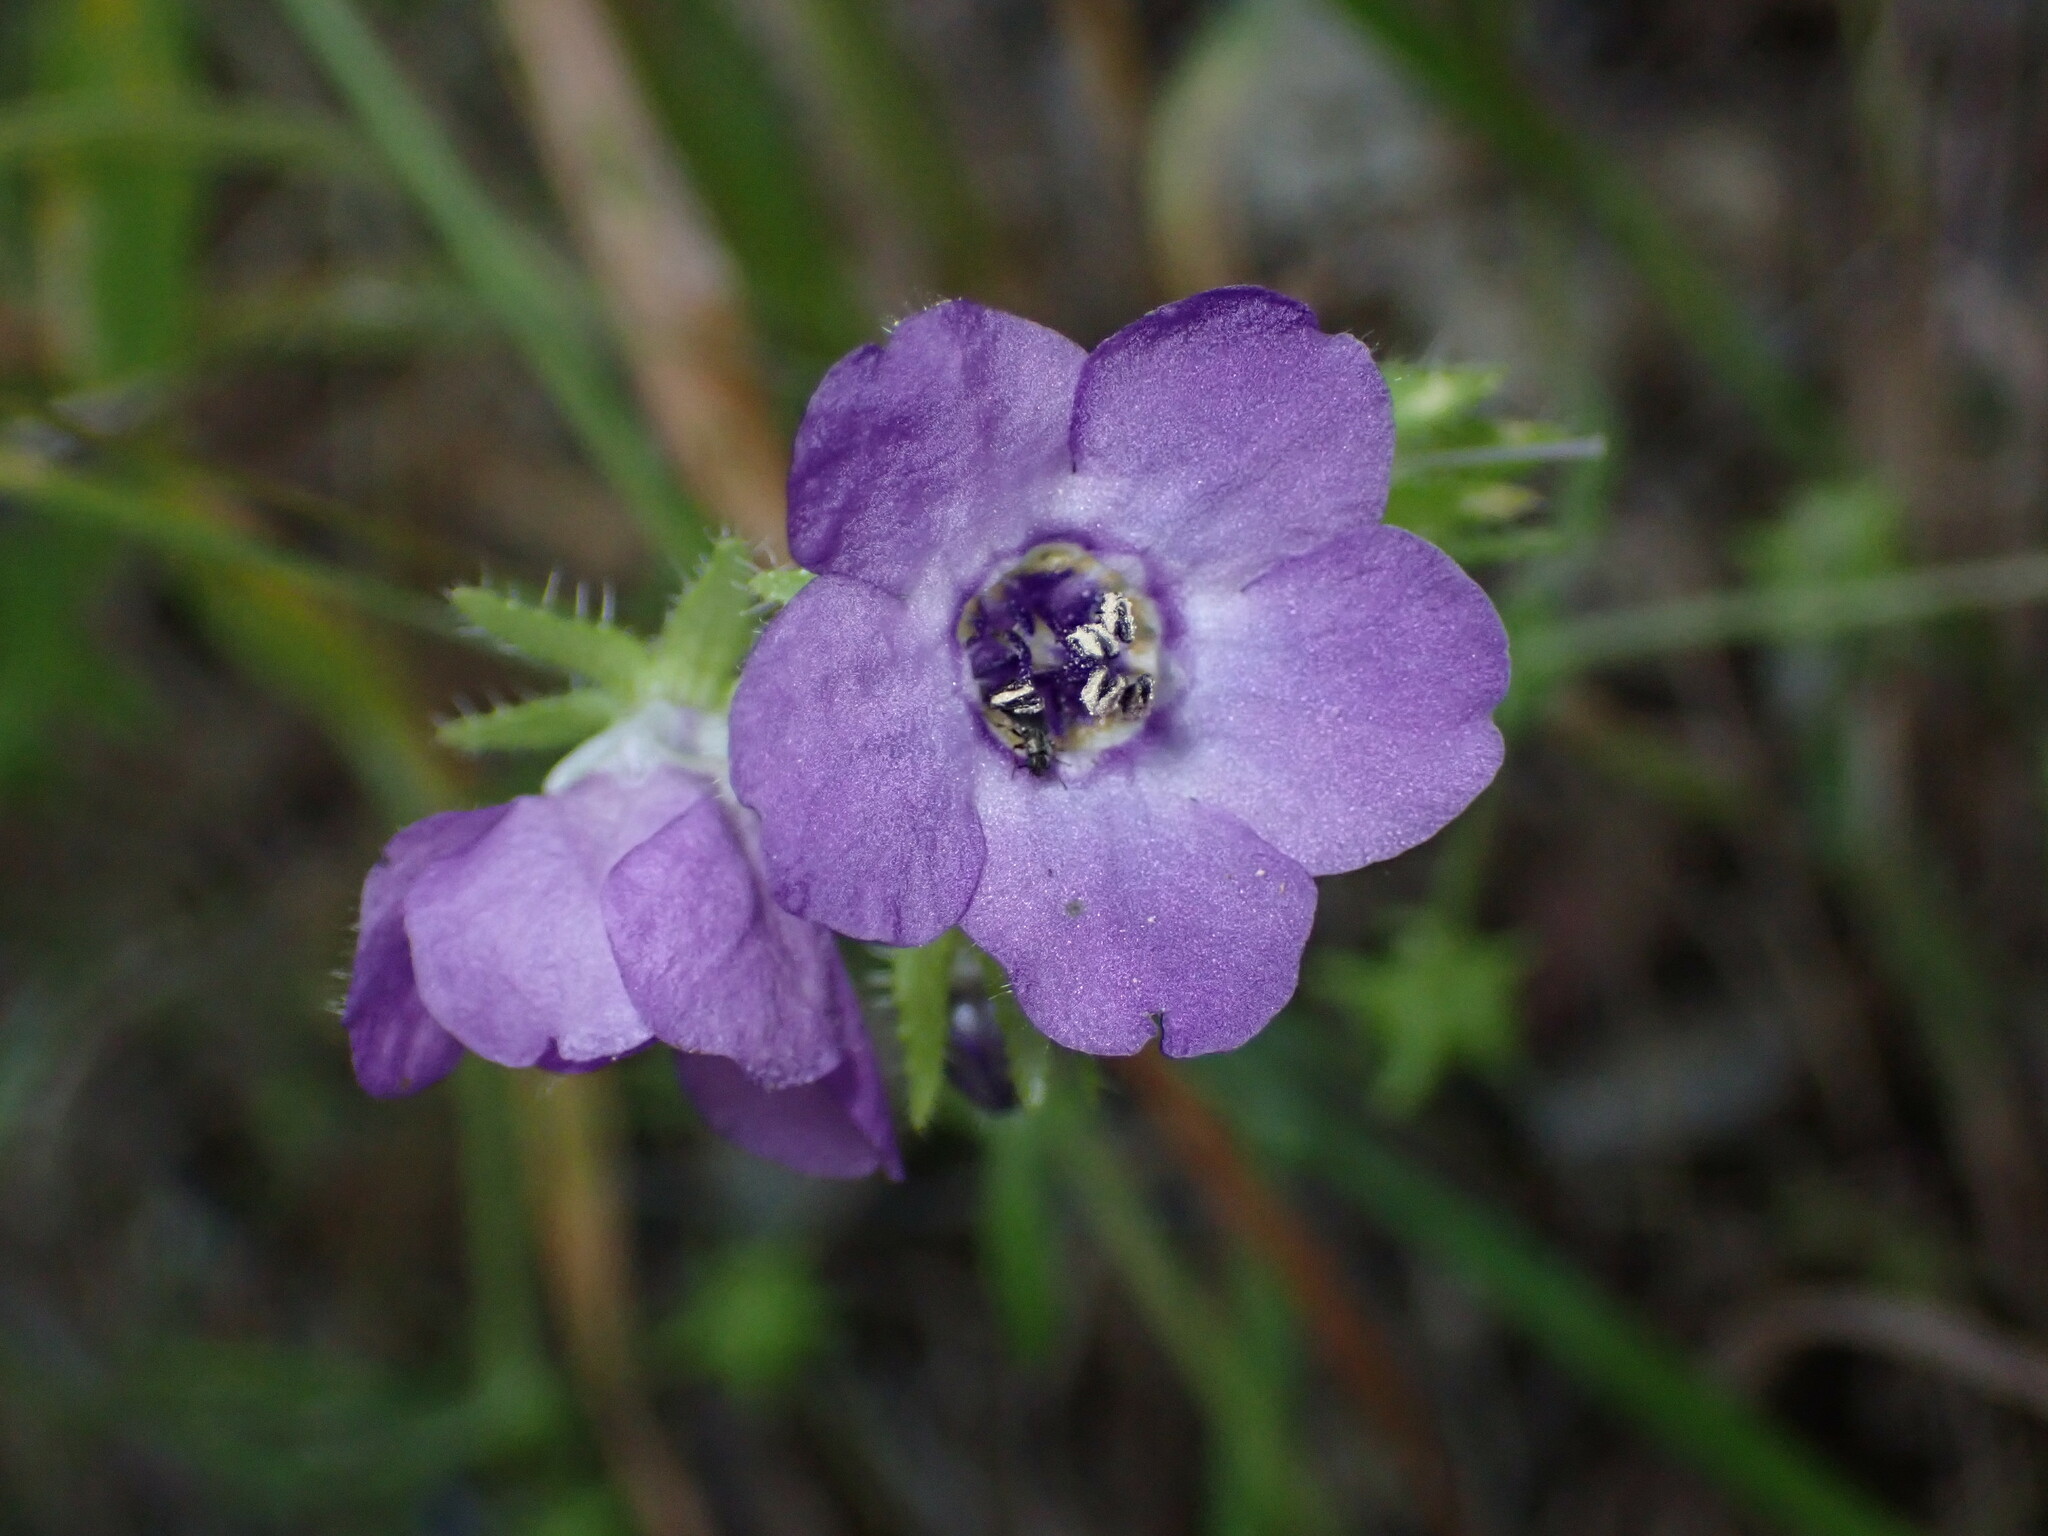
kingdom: Plantae
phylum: Tracheophyta
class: Magnoliopsida
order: Boraginales
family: Hydrophyllaceae
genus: Pholistoma
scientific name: Pholistoma auritum
